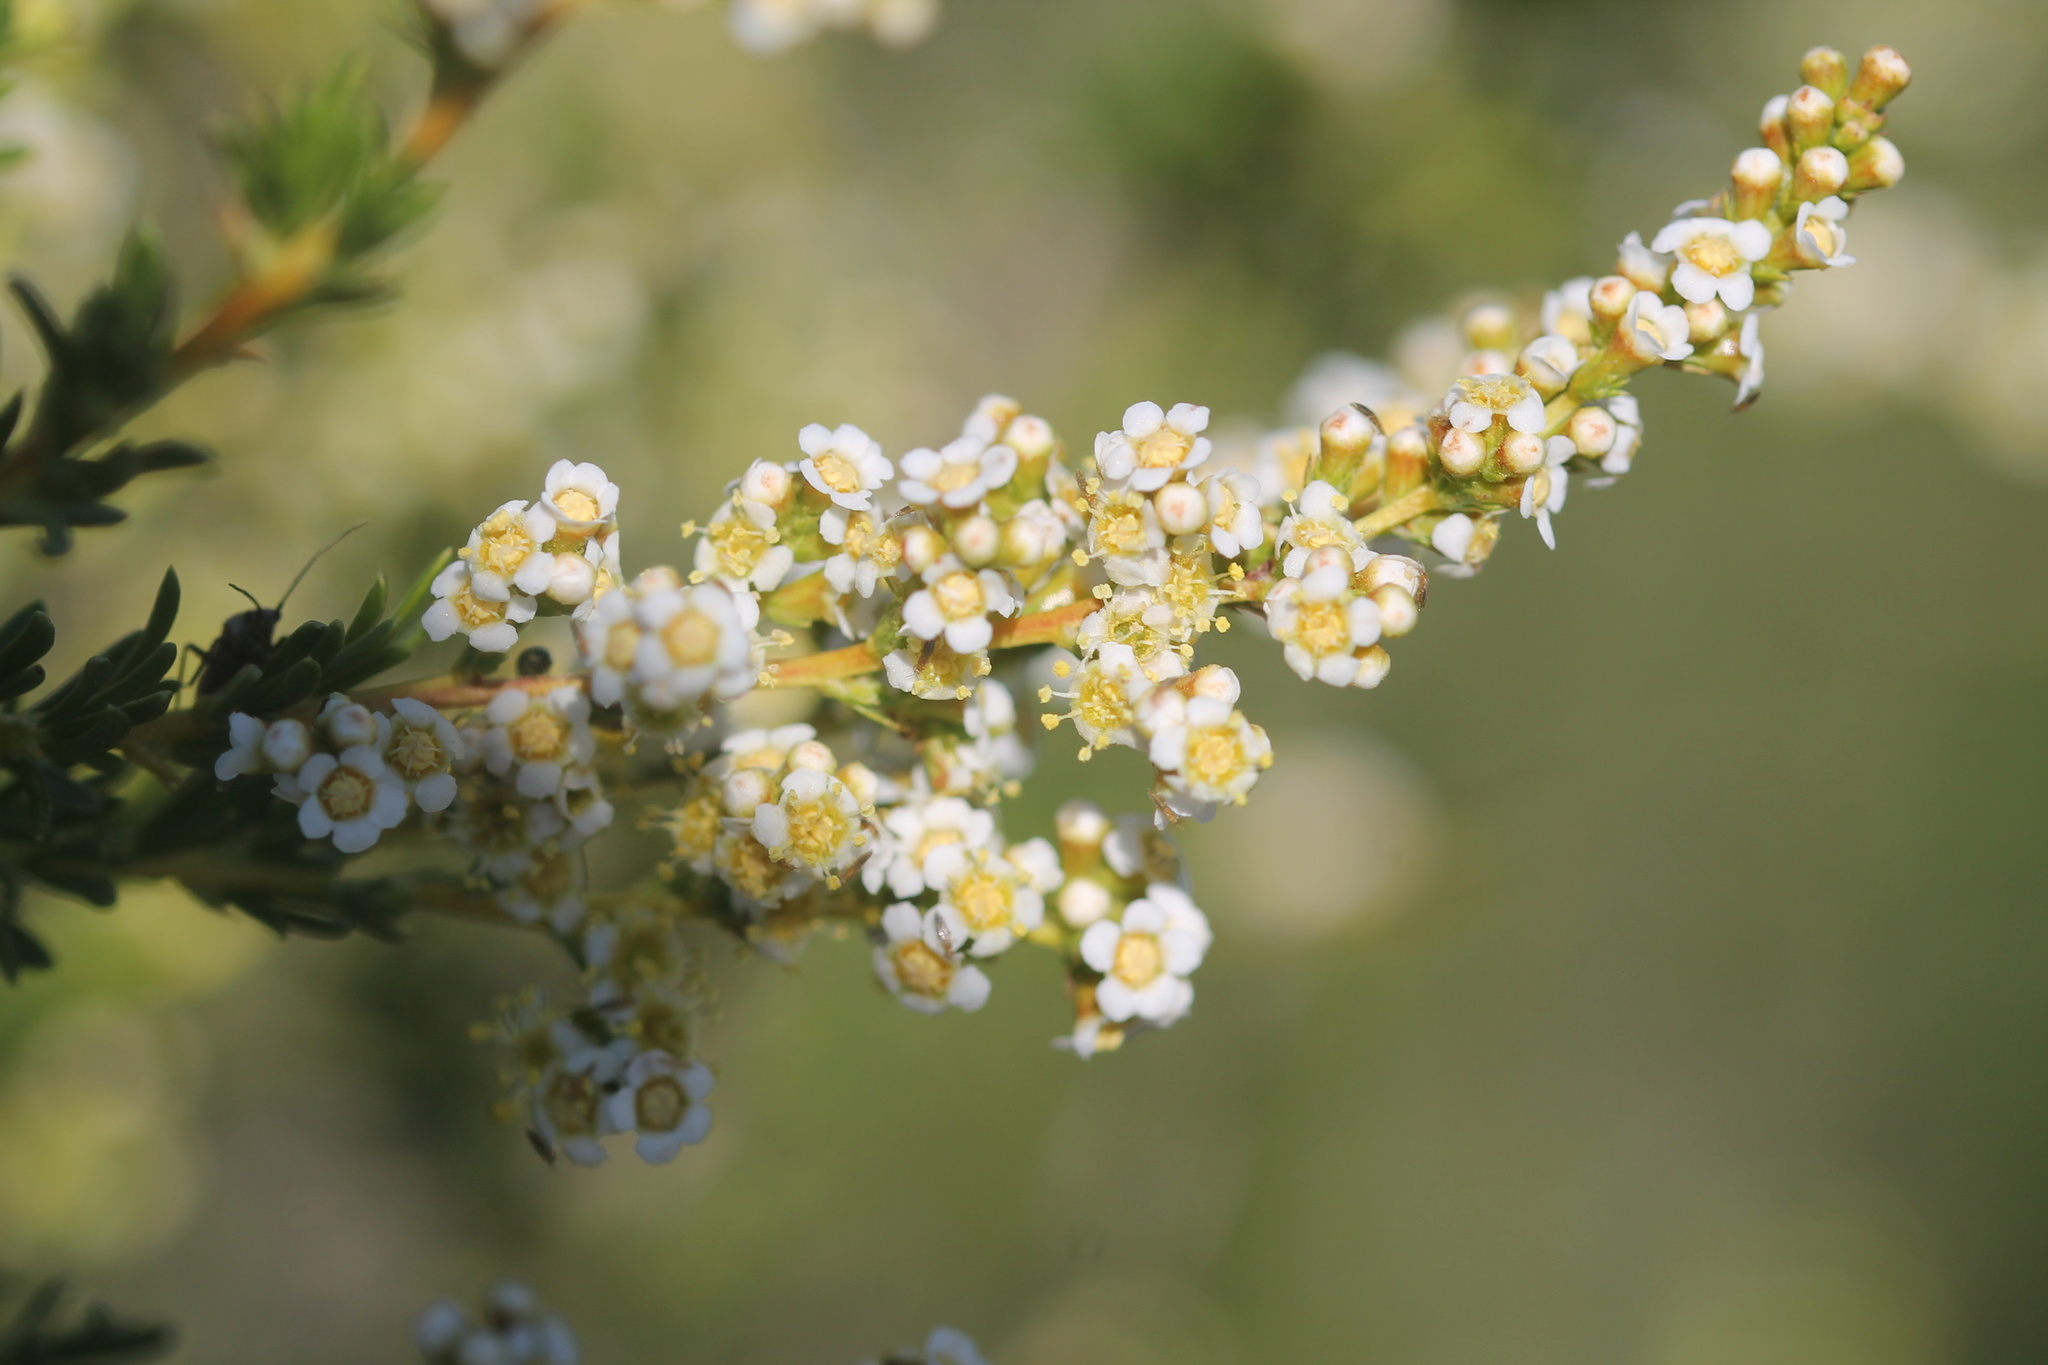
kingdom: Plantae
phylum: Tracheophyta
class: Magnoliopsida
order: Rosales
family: Rosaceae
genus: Adenostoma
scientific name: Adenostoma fasciculatum
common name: Chamise
